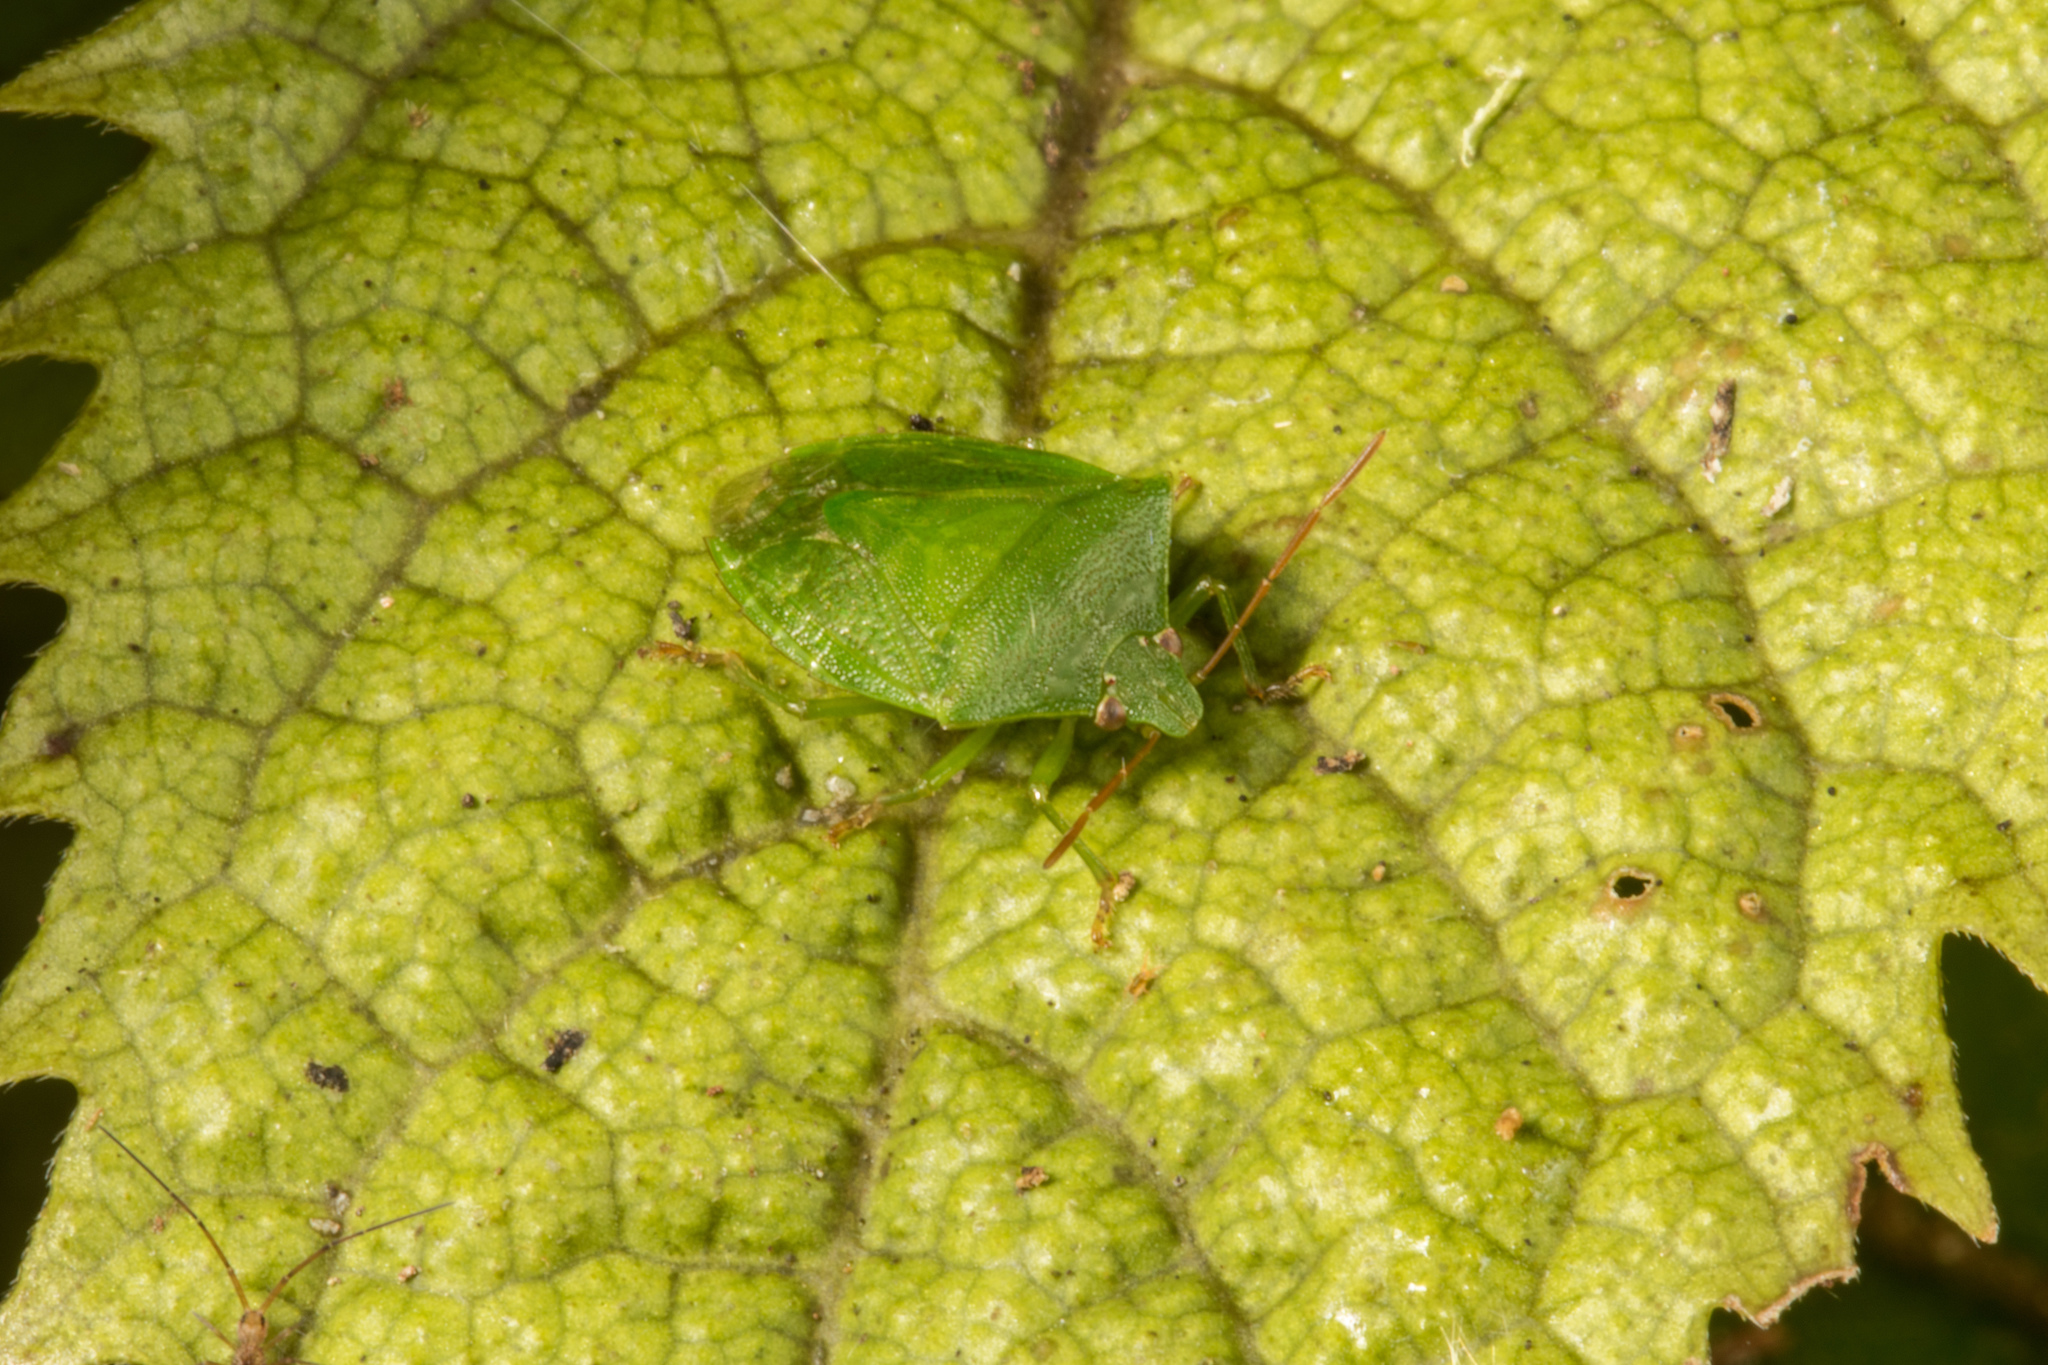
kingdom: Animalia
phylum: Arthropoda
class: Insecta
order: Hemiptera
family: Pentatomidae
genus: Cuspicona
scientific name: Cuspicona simplex
